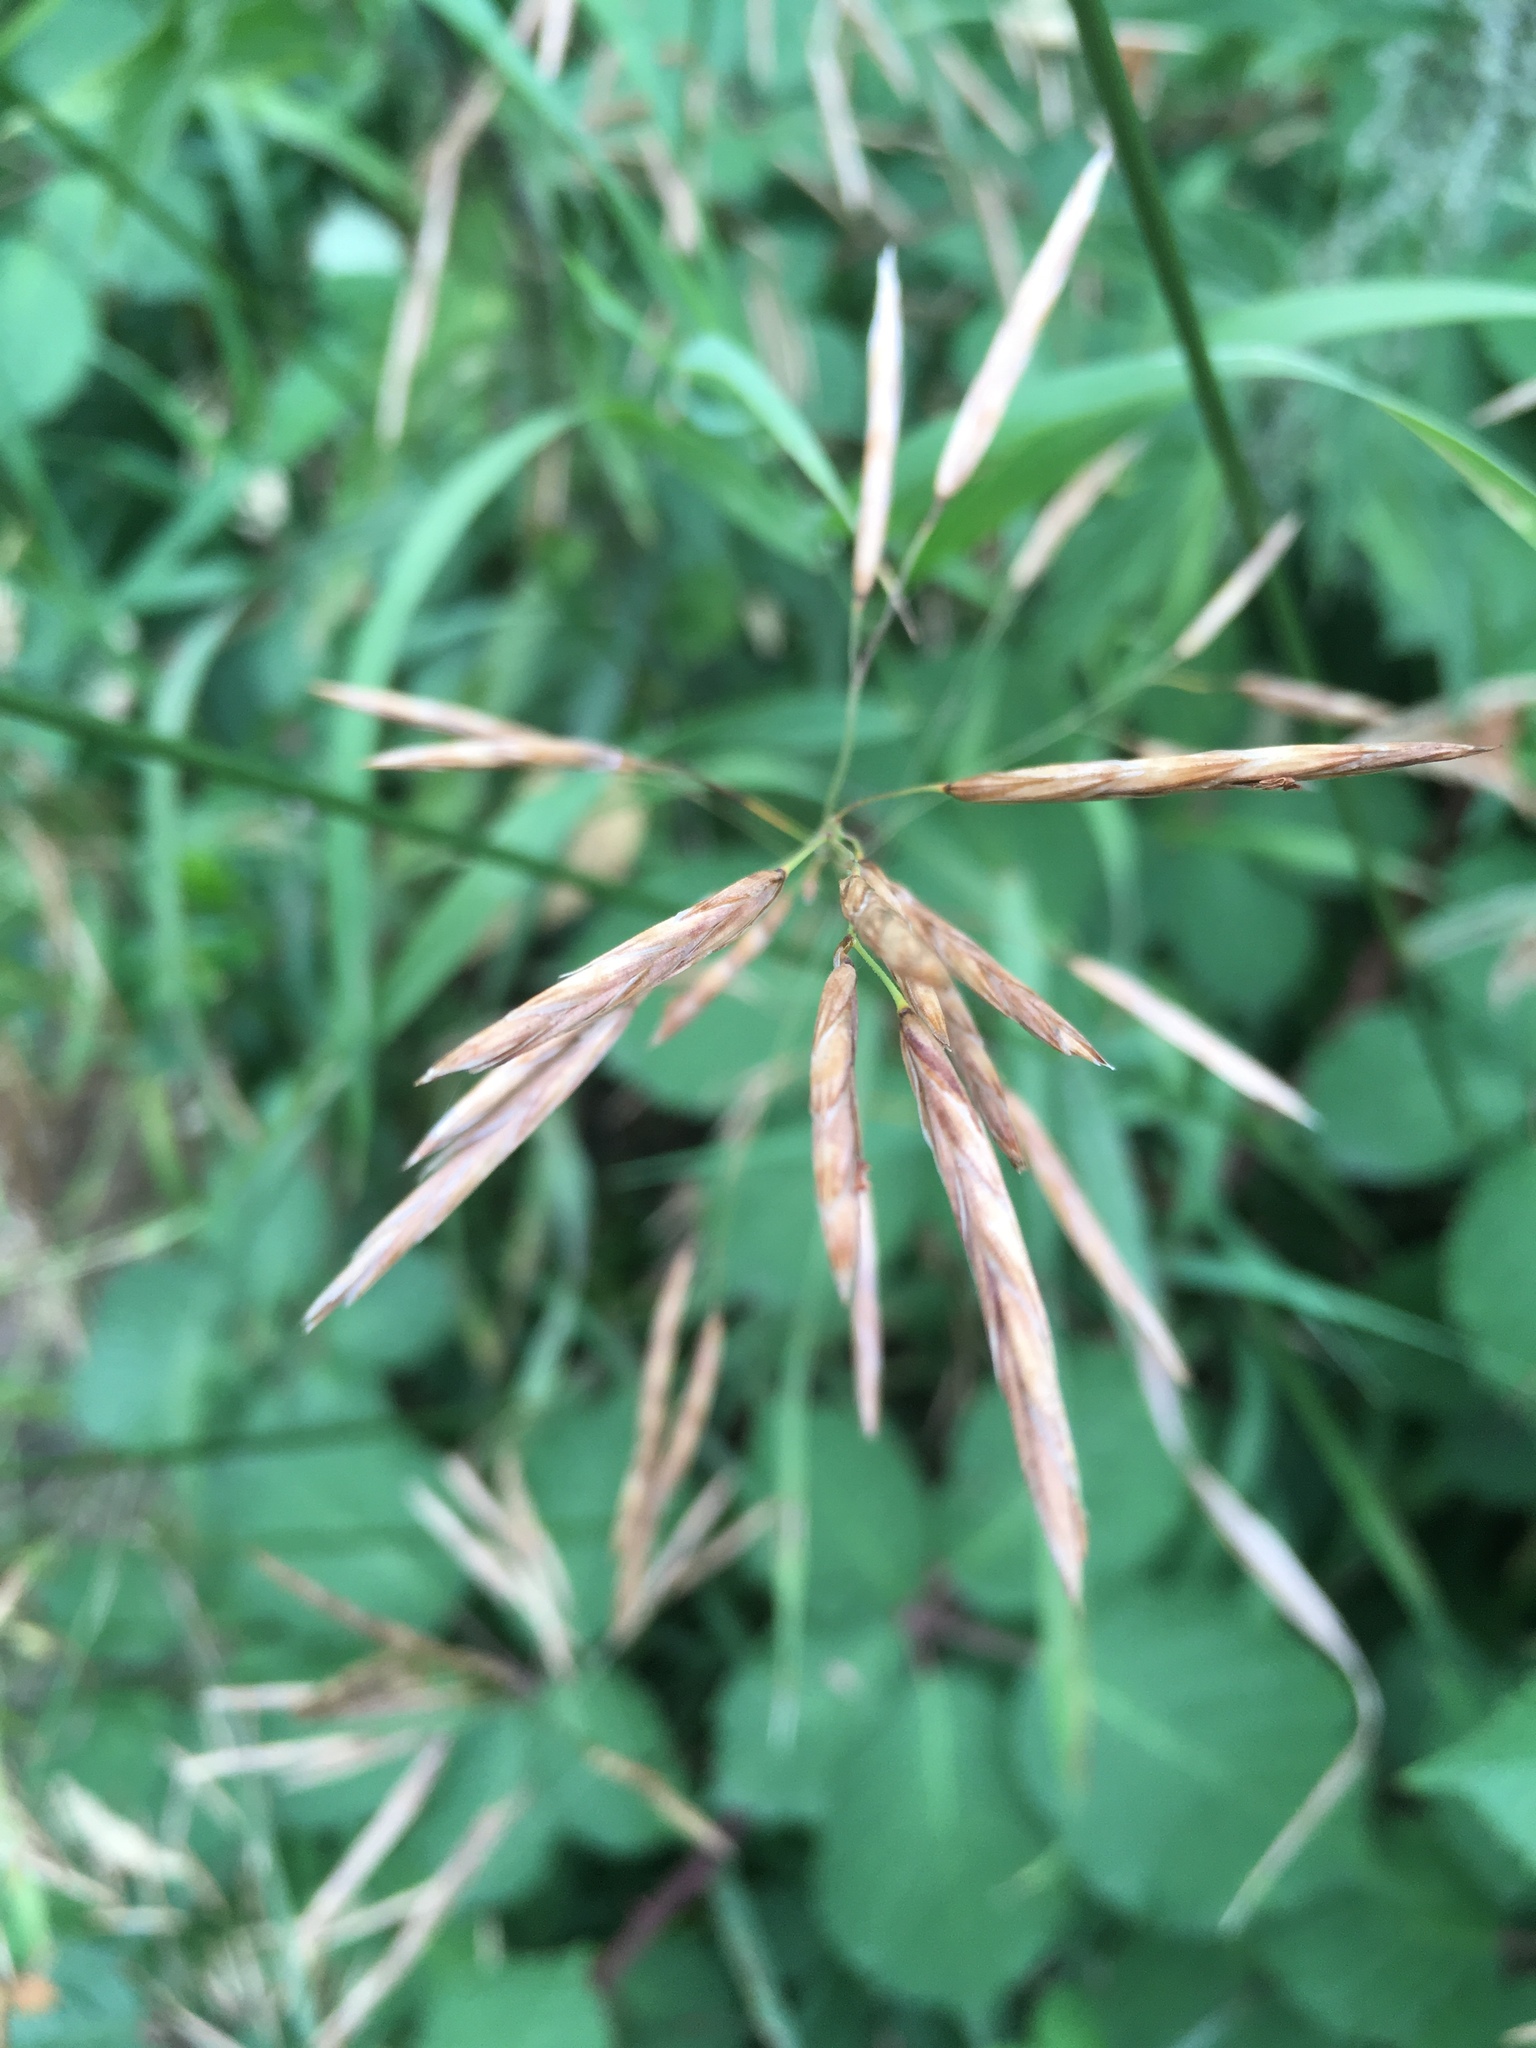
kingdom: Plantae
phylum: Tracheophyta
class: Liliopsida
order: Poales
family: Poaceae
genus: Bromus
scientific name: Bromus inermis
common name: Smooth brome
